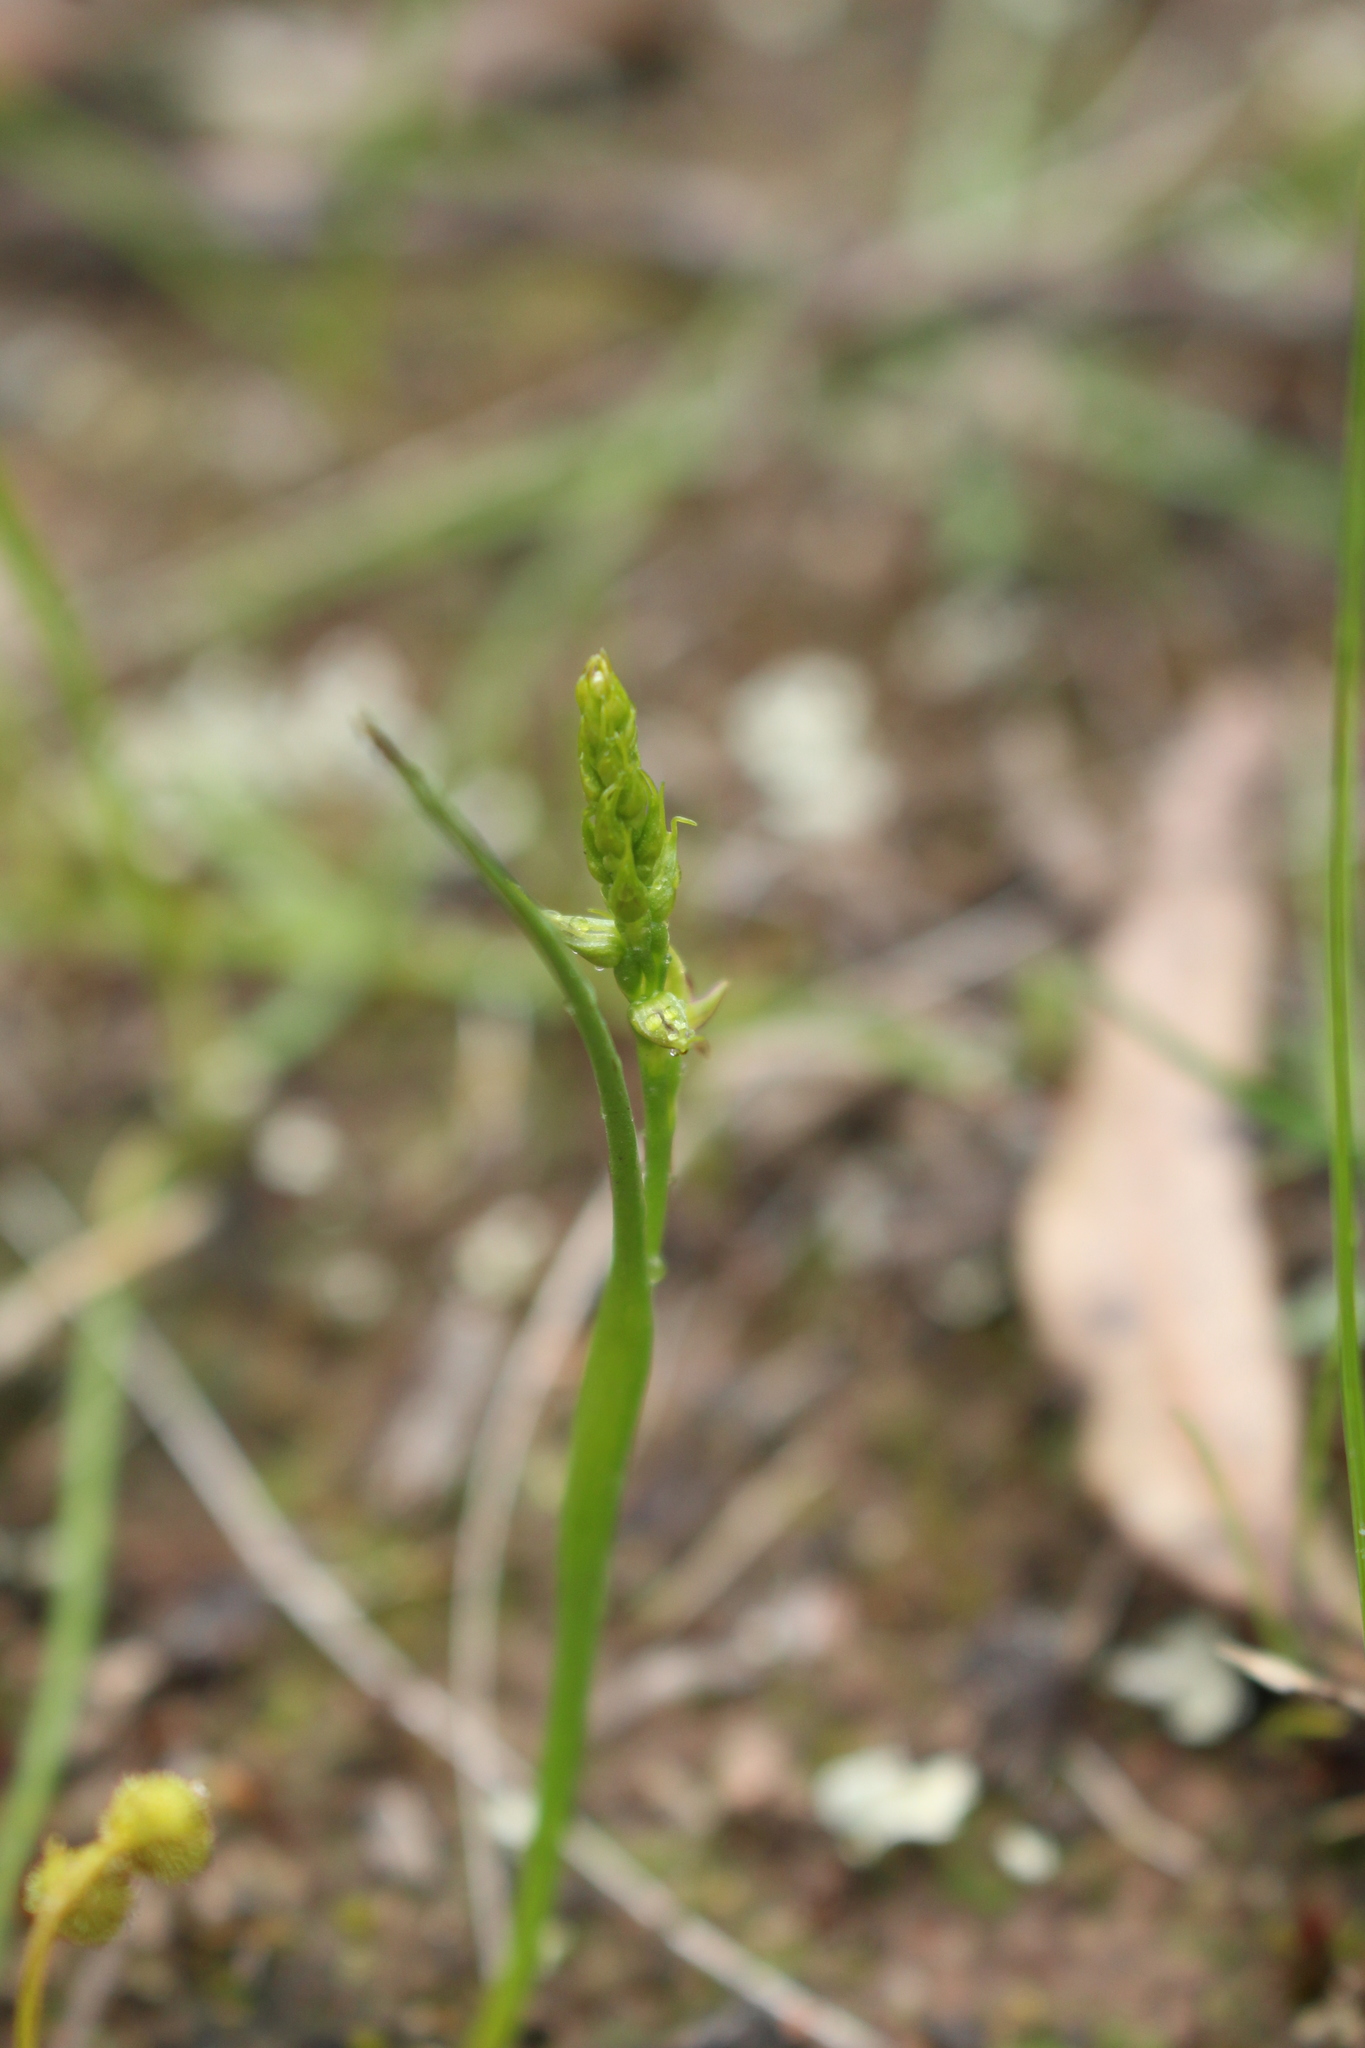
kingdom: Plantae
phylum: Tracheophyta
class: Liliopsida
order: Asparagales
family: Orchidaceae
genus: Prasophyllum
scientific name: Prasophyllum gracile
